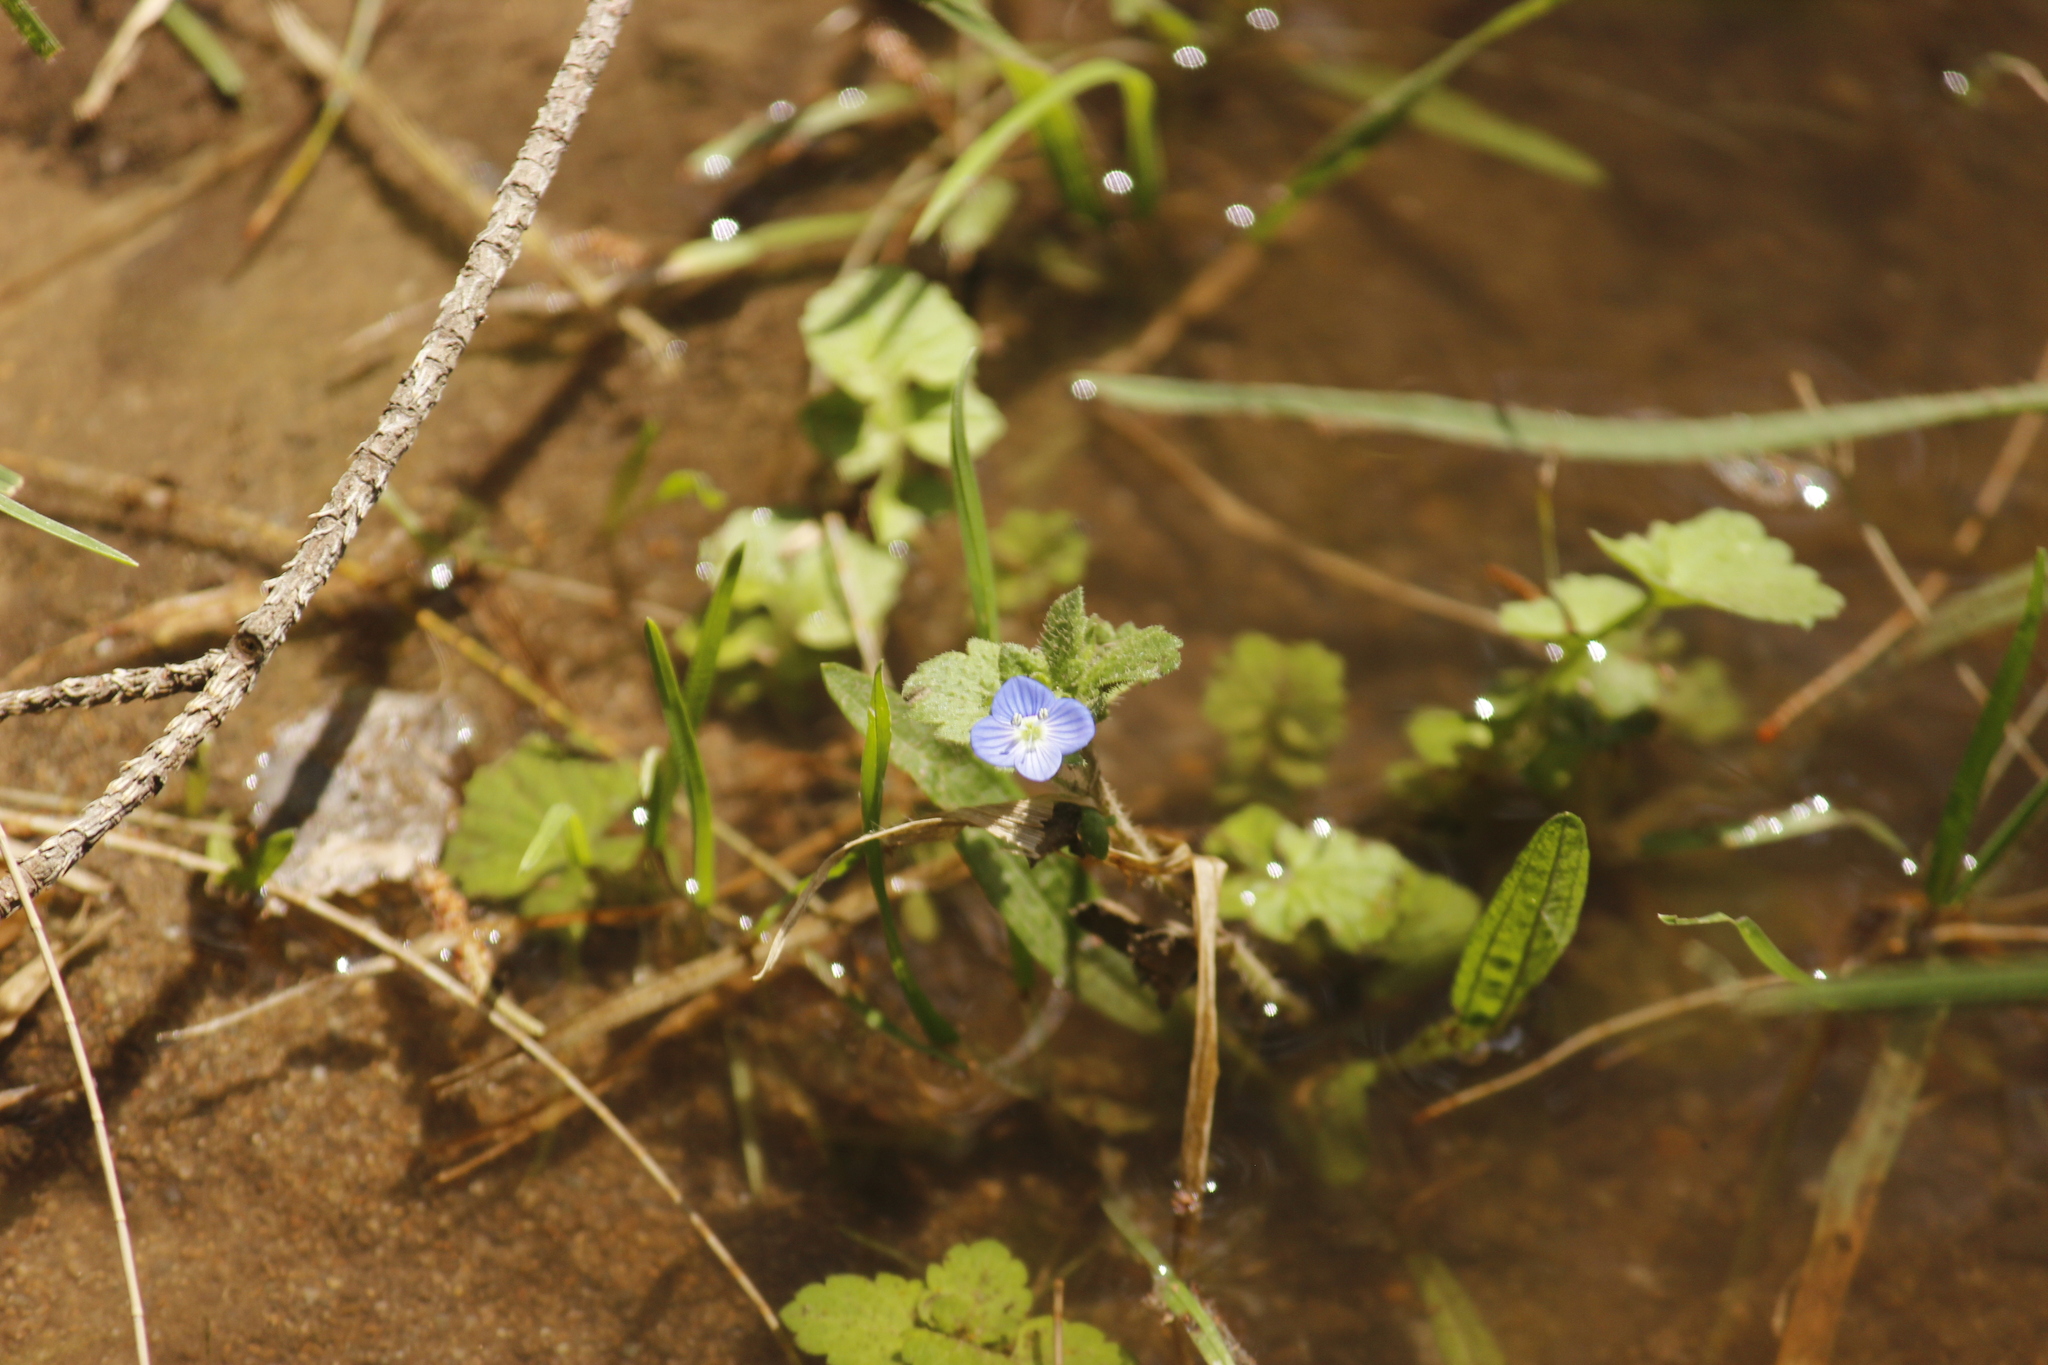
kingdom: Plantae
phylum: Tracheophyta
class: Magnoliopsida
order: Lamiales
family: Plantaginaceae
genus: Veronica
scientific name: Veronica persica
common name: Common field-speedwell
